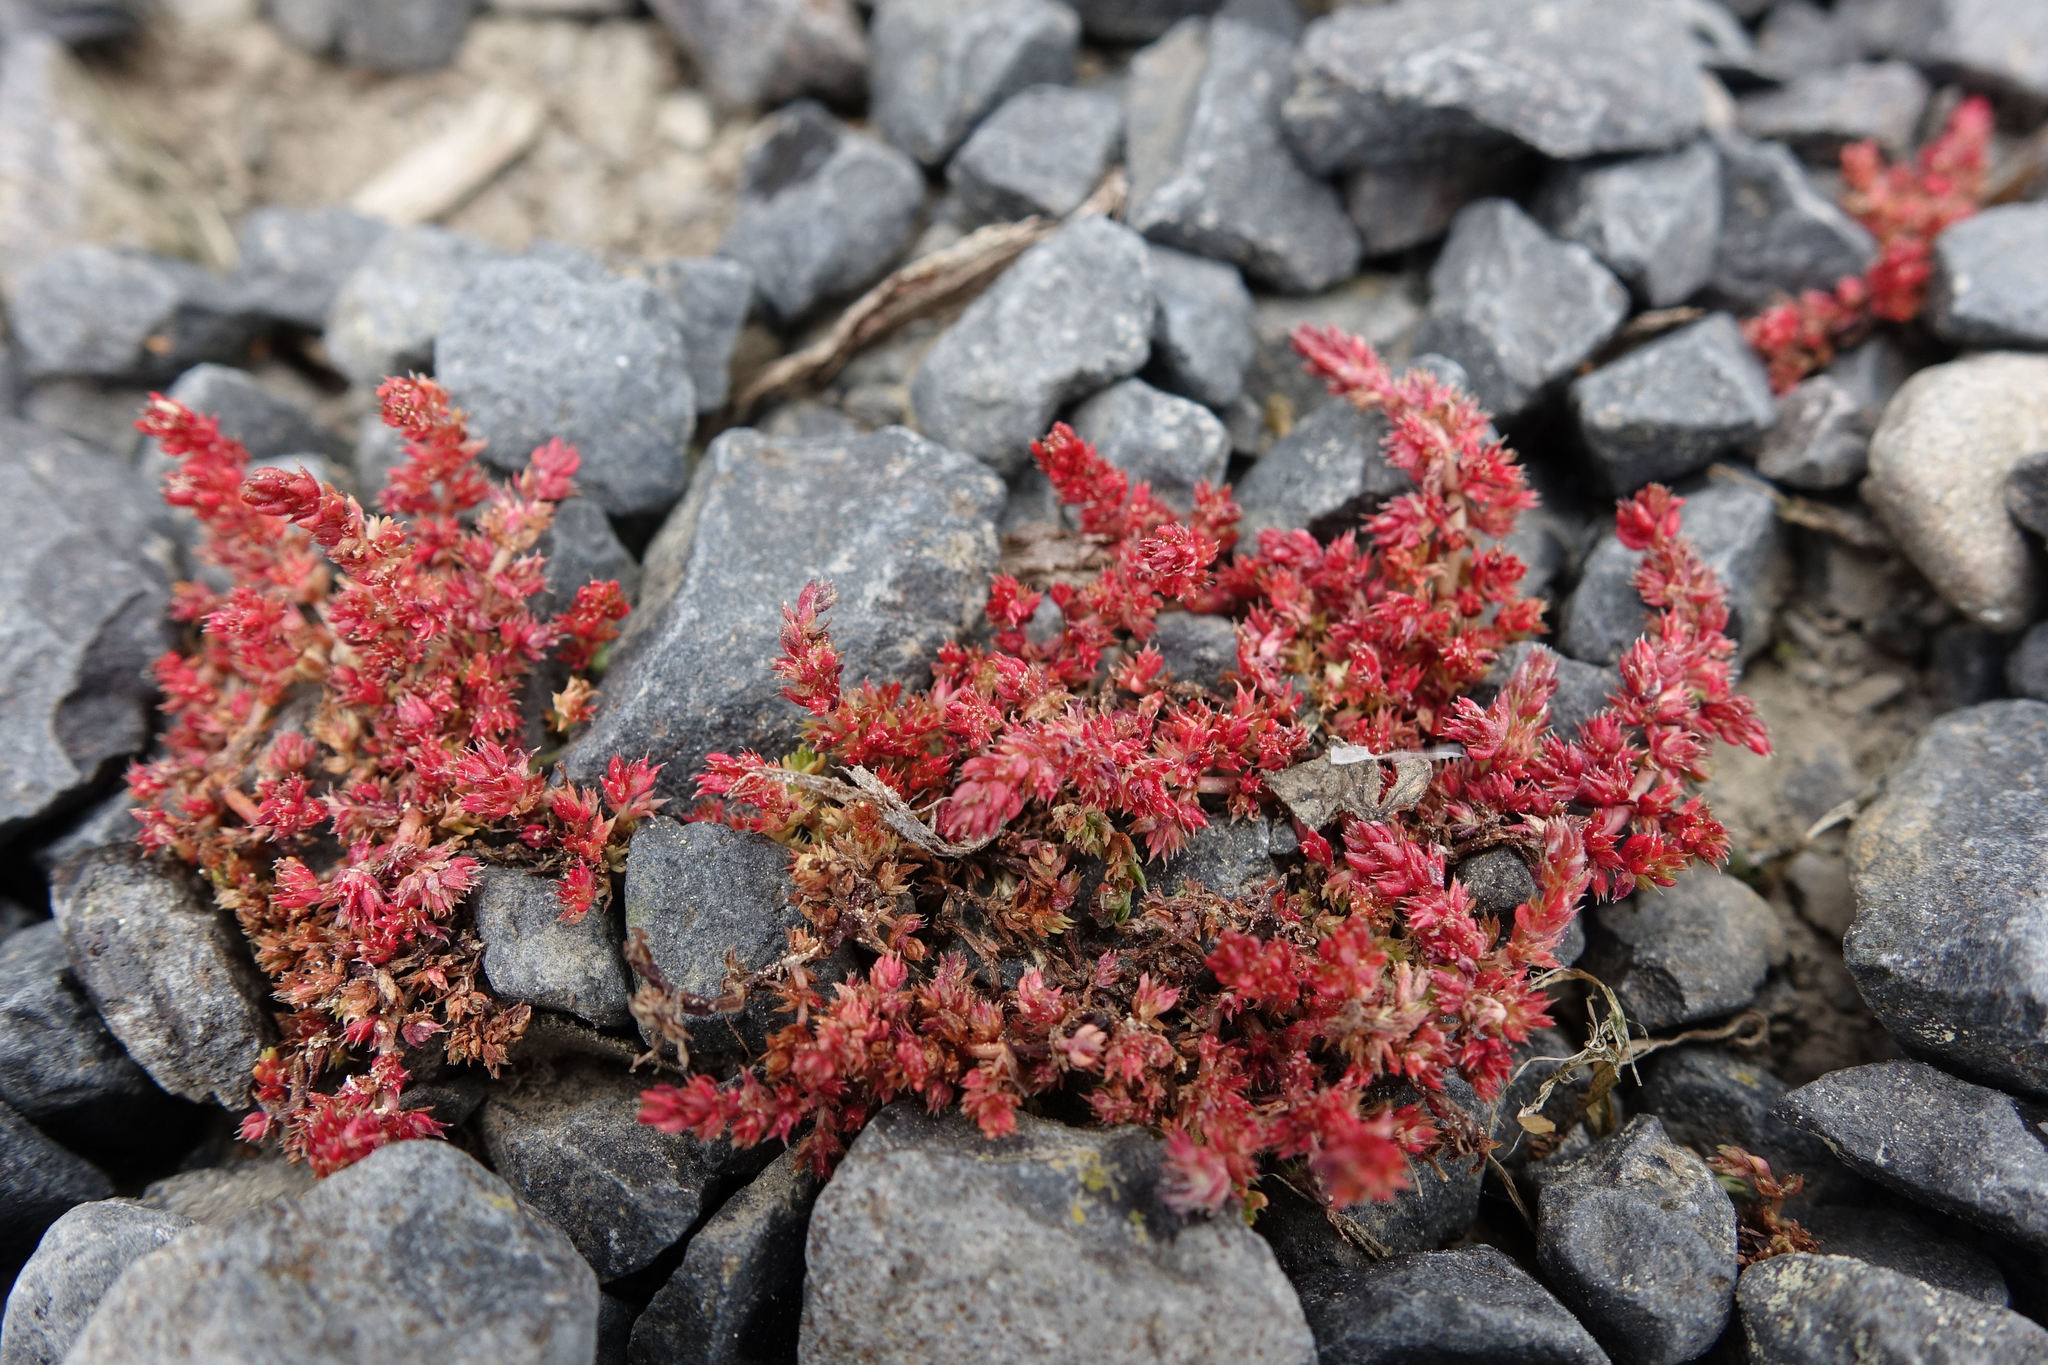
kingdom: Plantae
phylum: Tracheophyta
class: Magnoliopsida
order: Saxifragales
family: Crassulaceae
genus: Crassula
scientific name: Crassula alata
